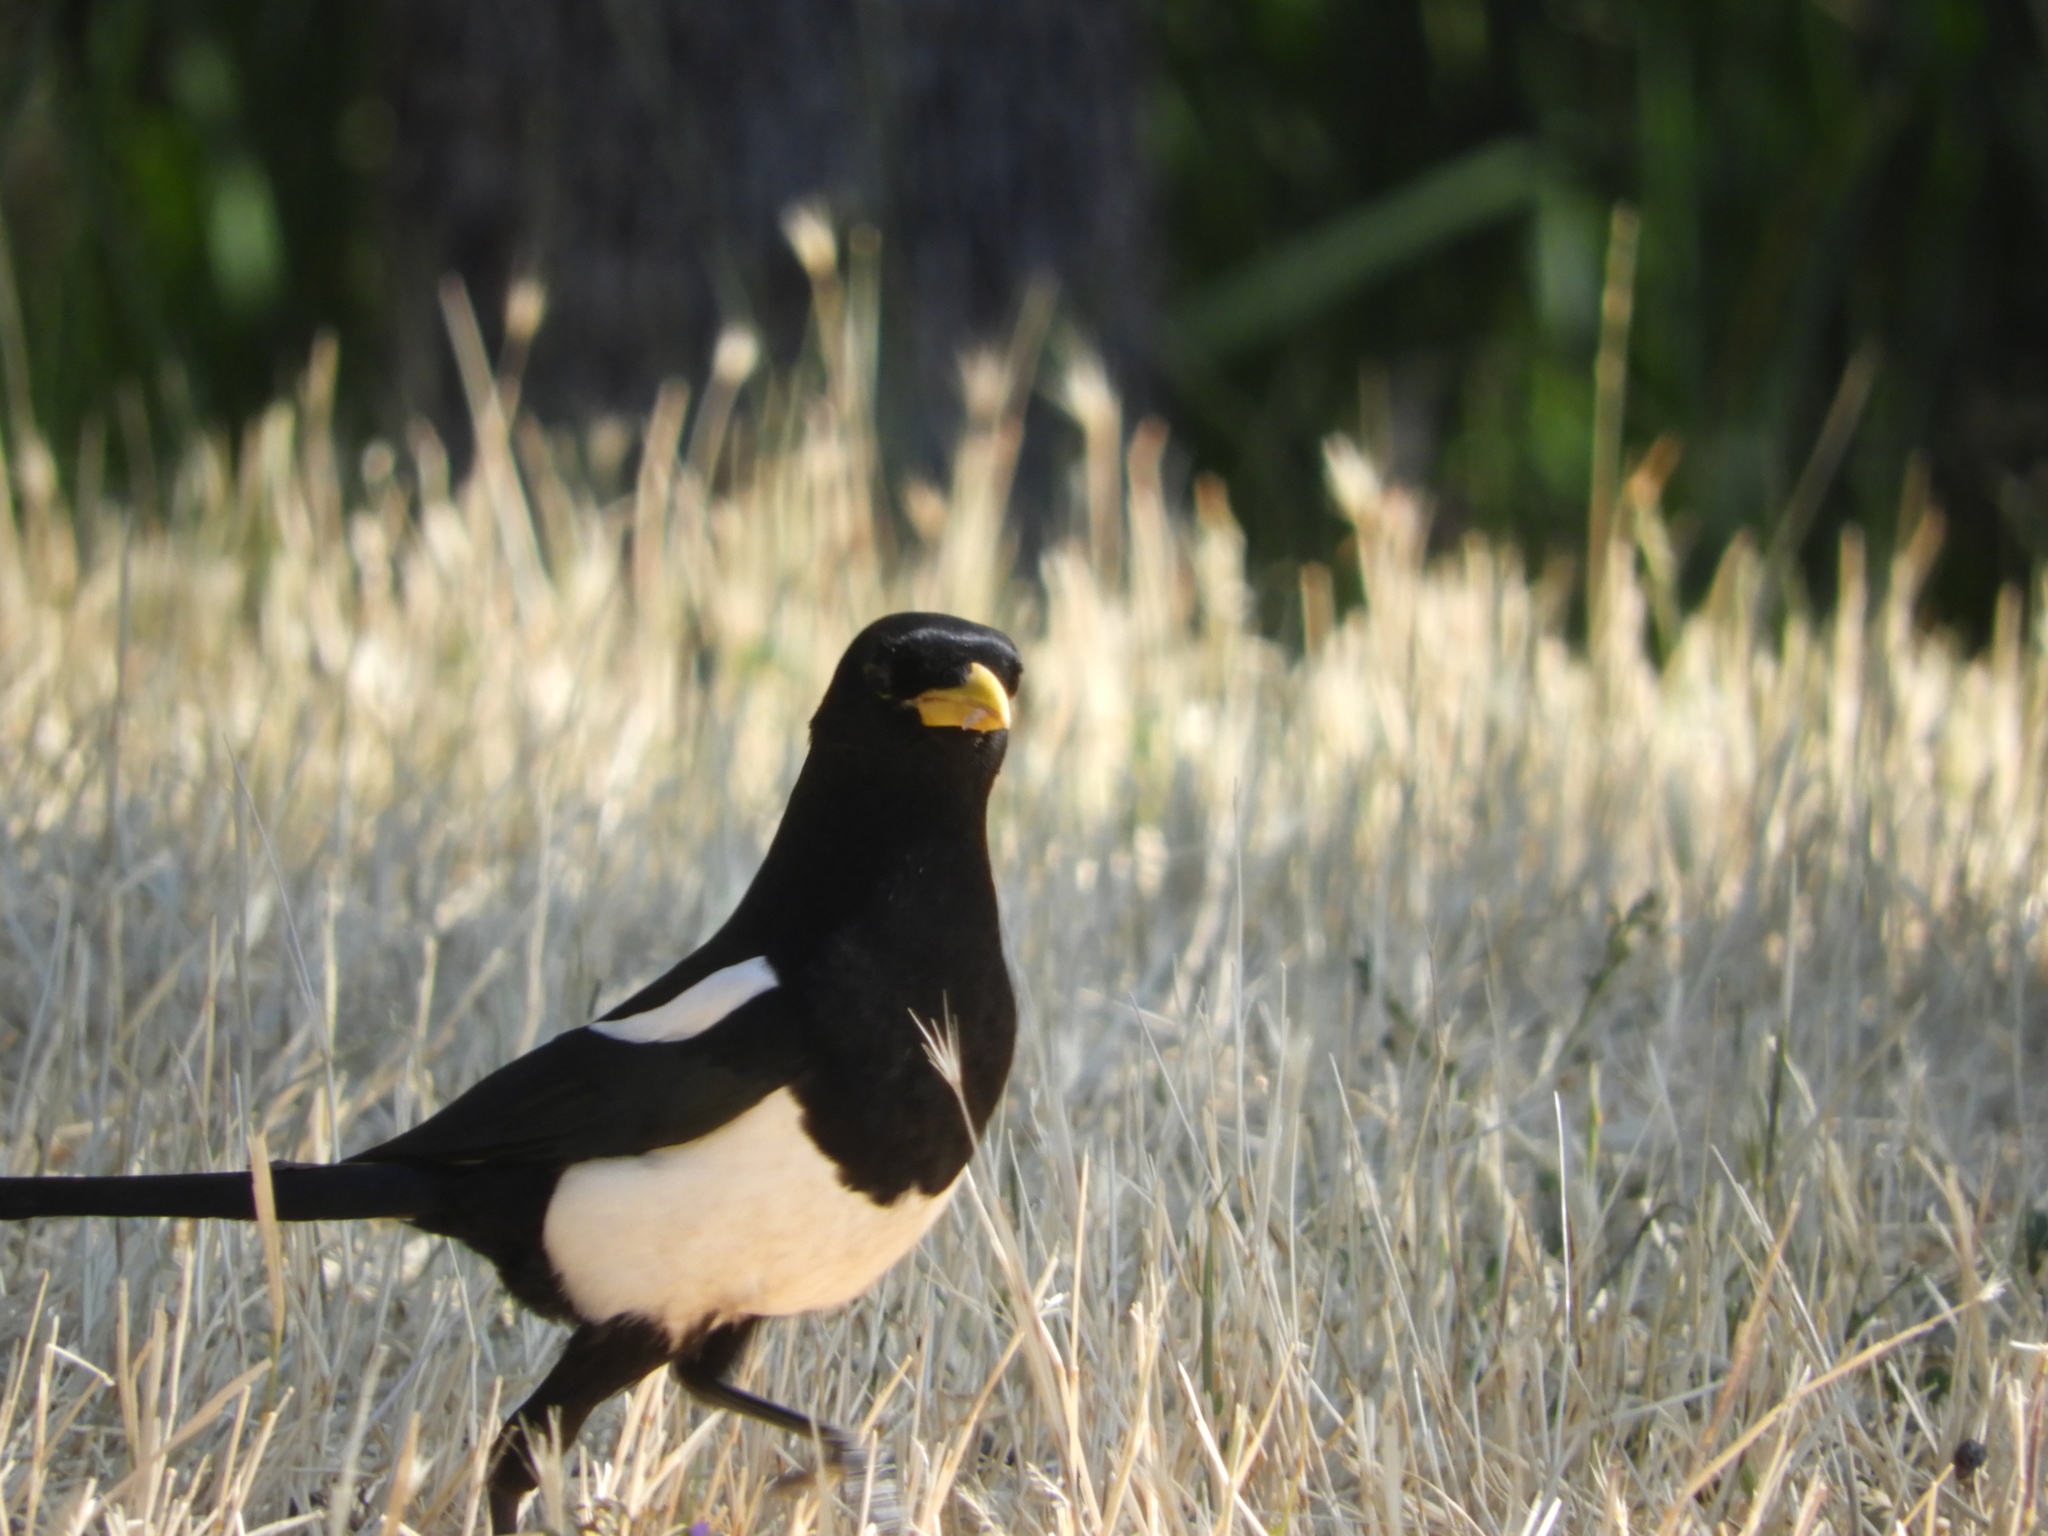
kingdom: Animalia
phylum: Chordata
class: Aves
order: Passeriformes
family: Corvidae
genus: Pica
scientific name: Pica nuttalli
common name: Yellow-billed magpie
